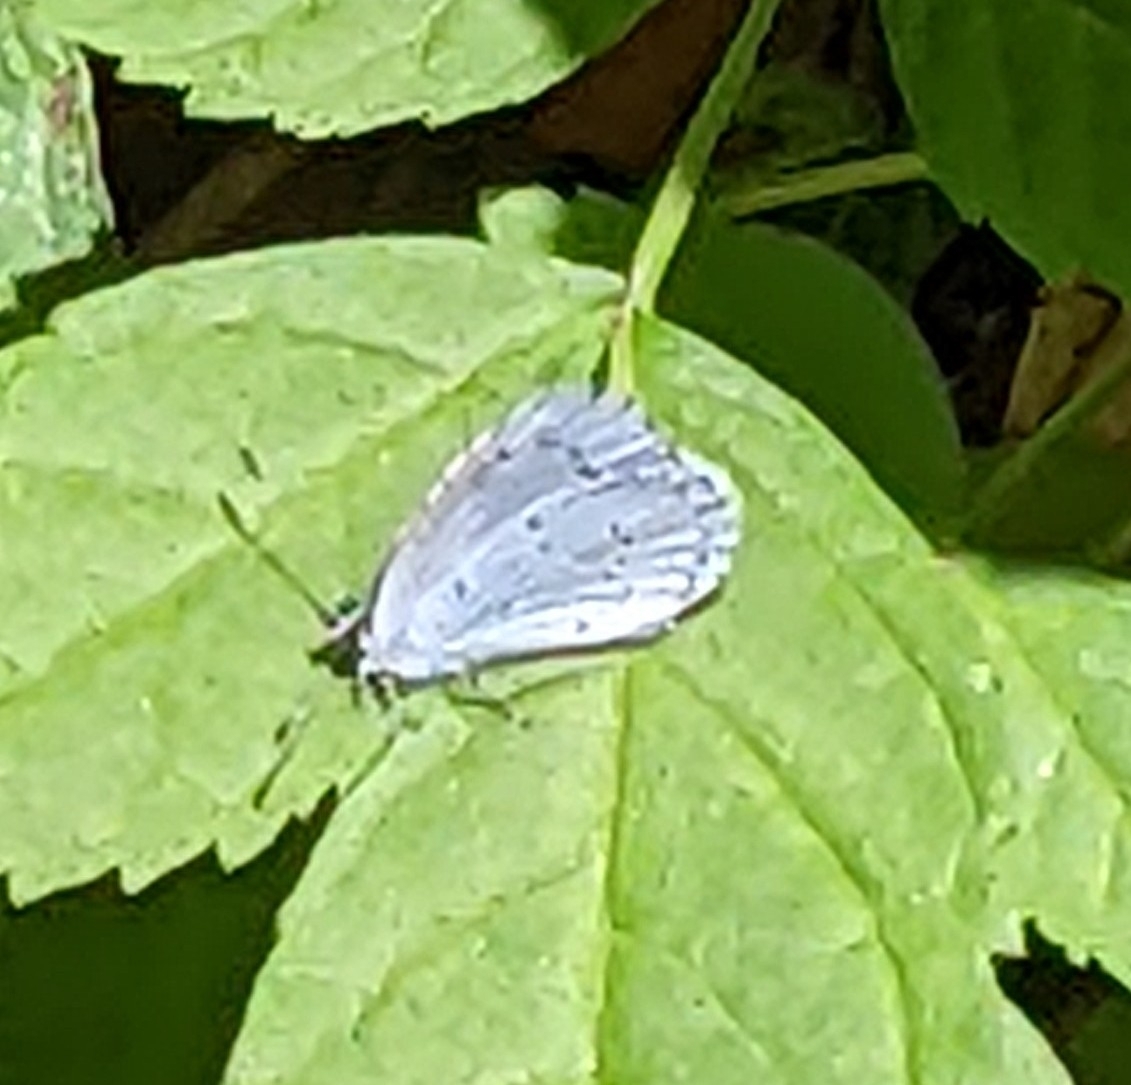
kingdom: Animalia
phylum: Arthropoda
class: Insecta
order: Lepidoptera
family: Lycaenidae
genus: Celastrina
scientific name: Celastrina argiolus
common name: Holly blue
